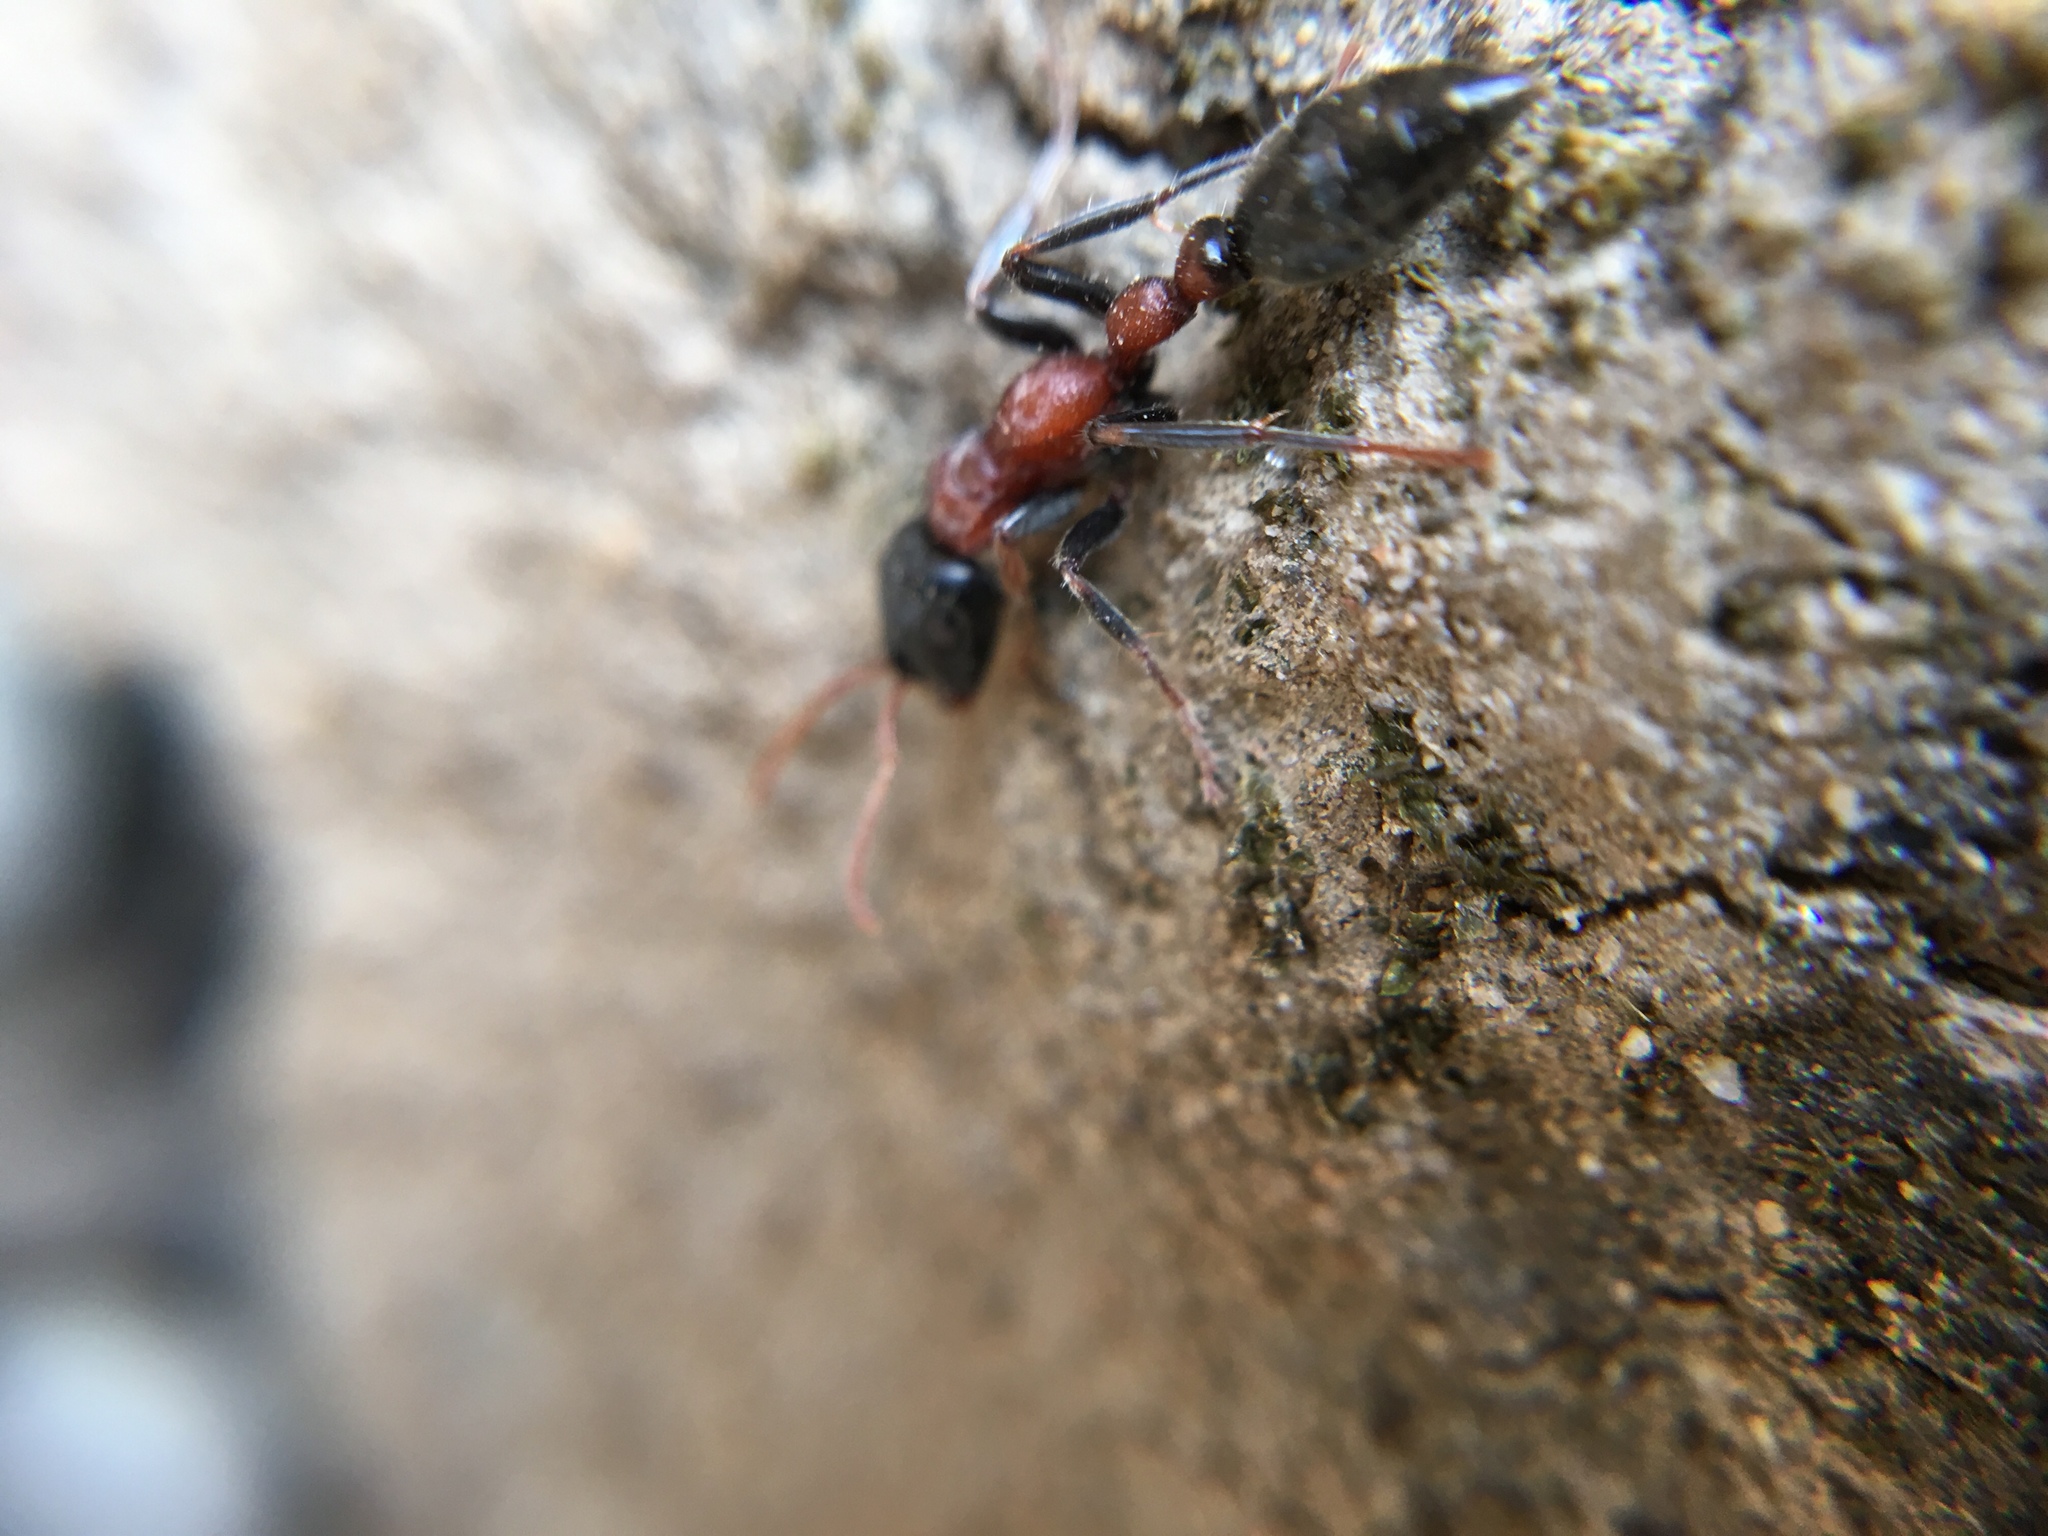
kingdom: Animalia
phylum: Arthropoda
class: Insecta
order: Hymenoptera
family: Formicidae
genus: Tetraponera
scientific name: Tetraponera rufonigra
